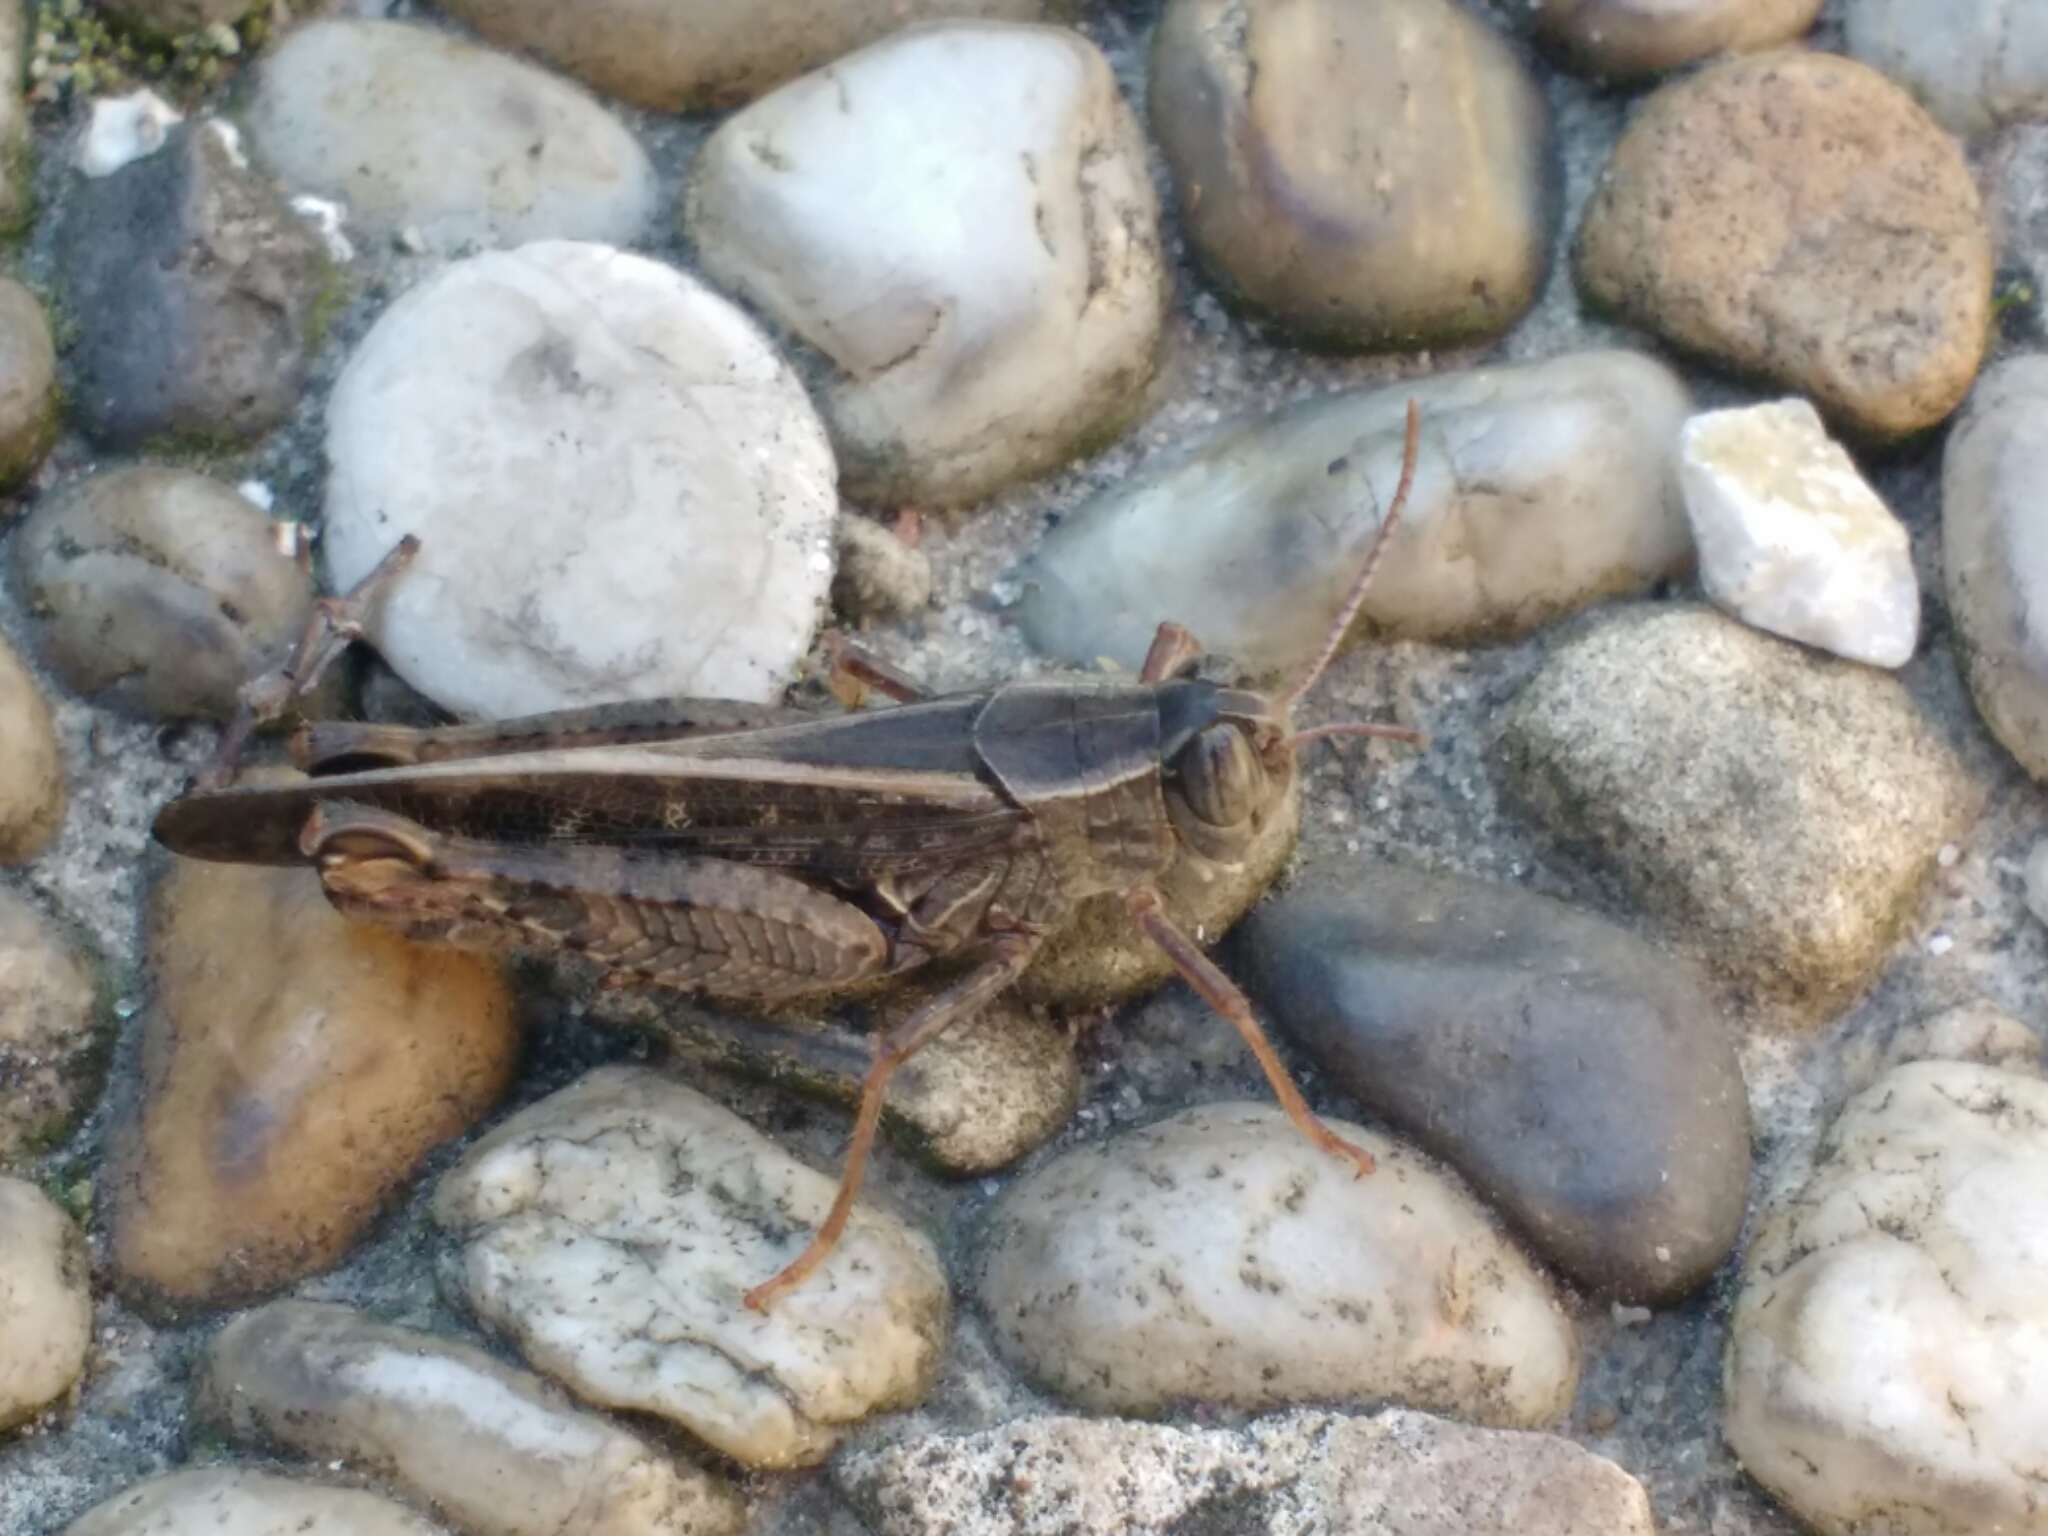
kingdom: Animalia
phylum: Arthropoda
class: Insecta
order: Orthoptera
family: Acrididae
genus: Calliptamus
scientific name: Calliptamus italicus
